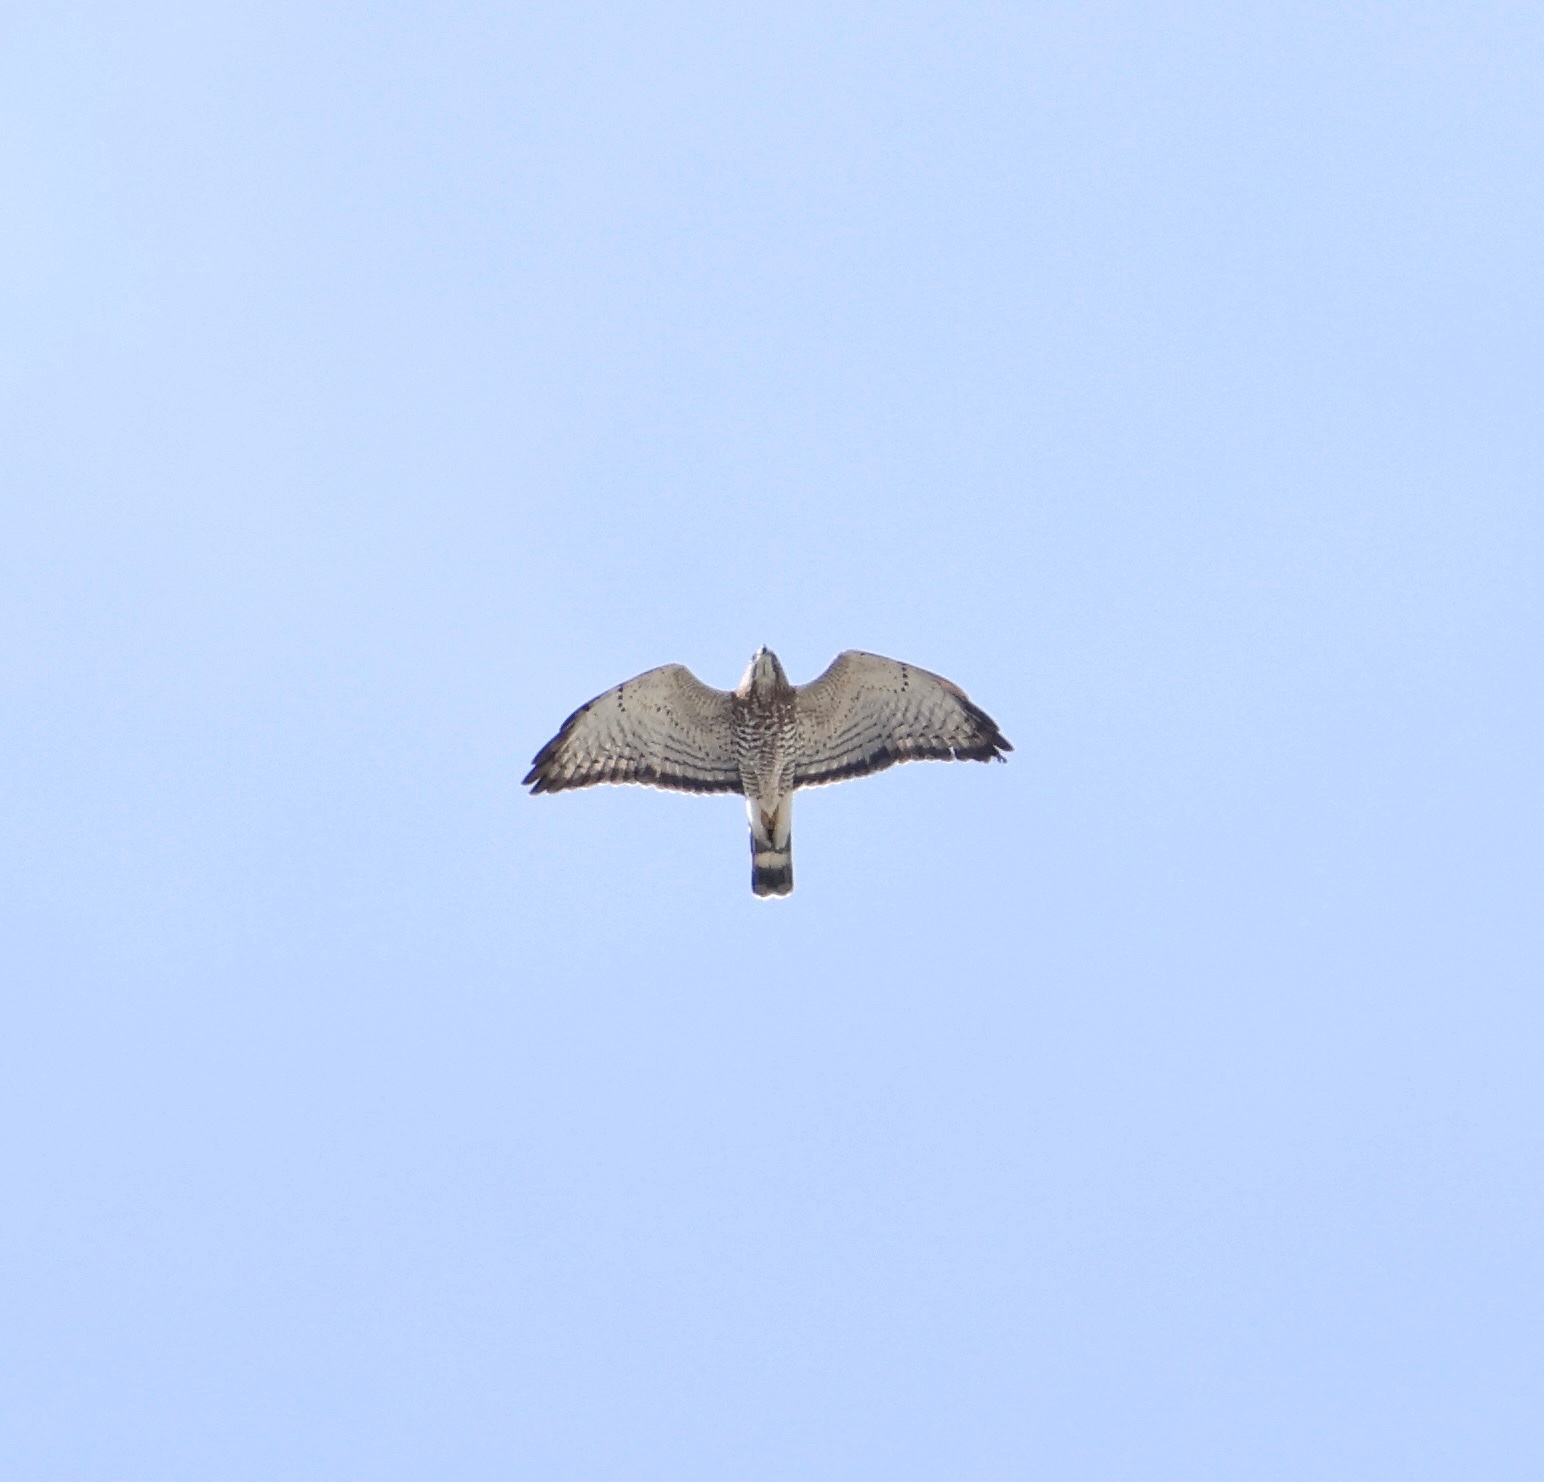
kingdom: Animalia
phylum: Chordata
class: Aves
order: Accipitriformes
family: Accipitridae
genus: Buteo
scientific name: Buteo platypterus
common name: Broad-winged hawk
